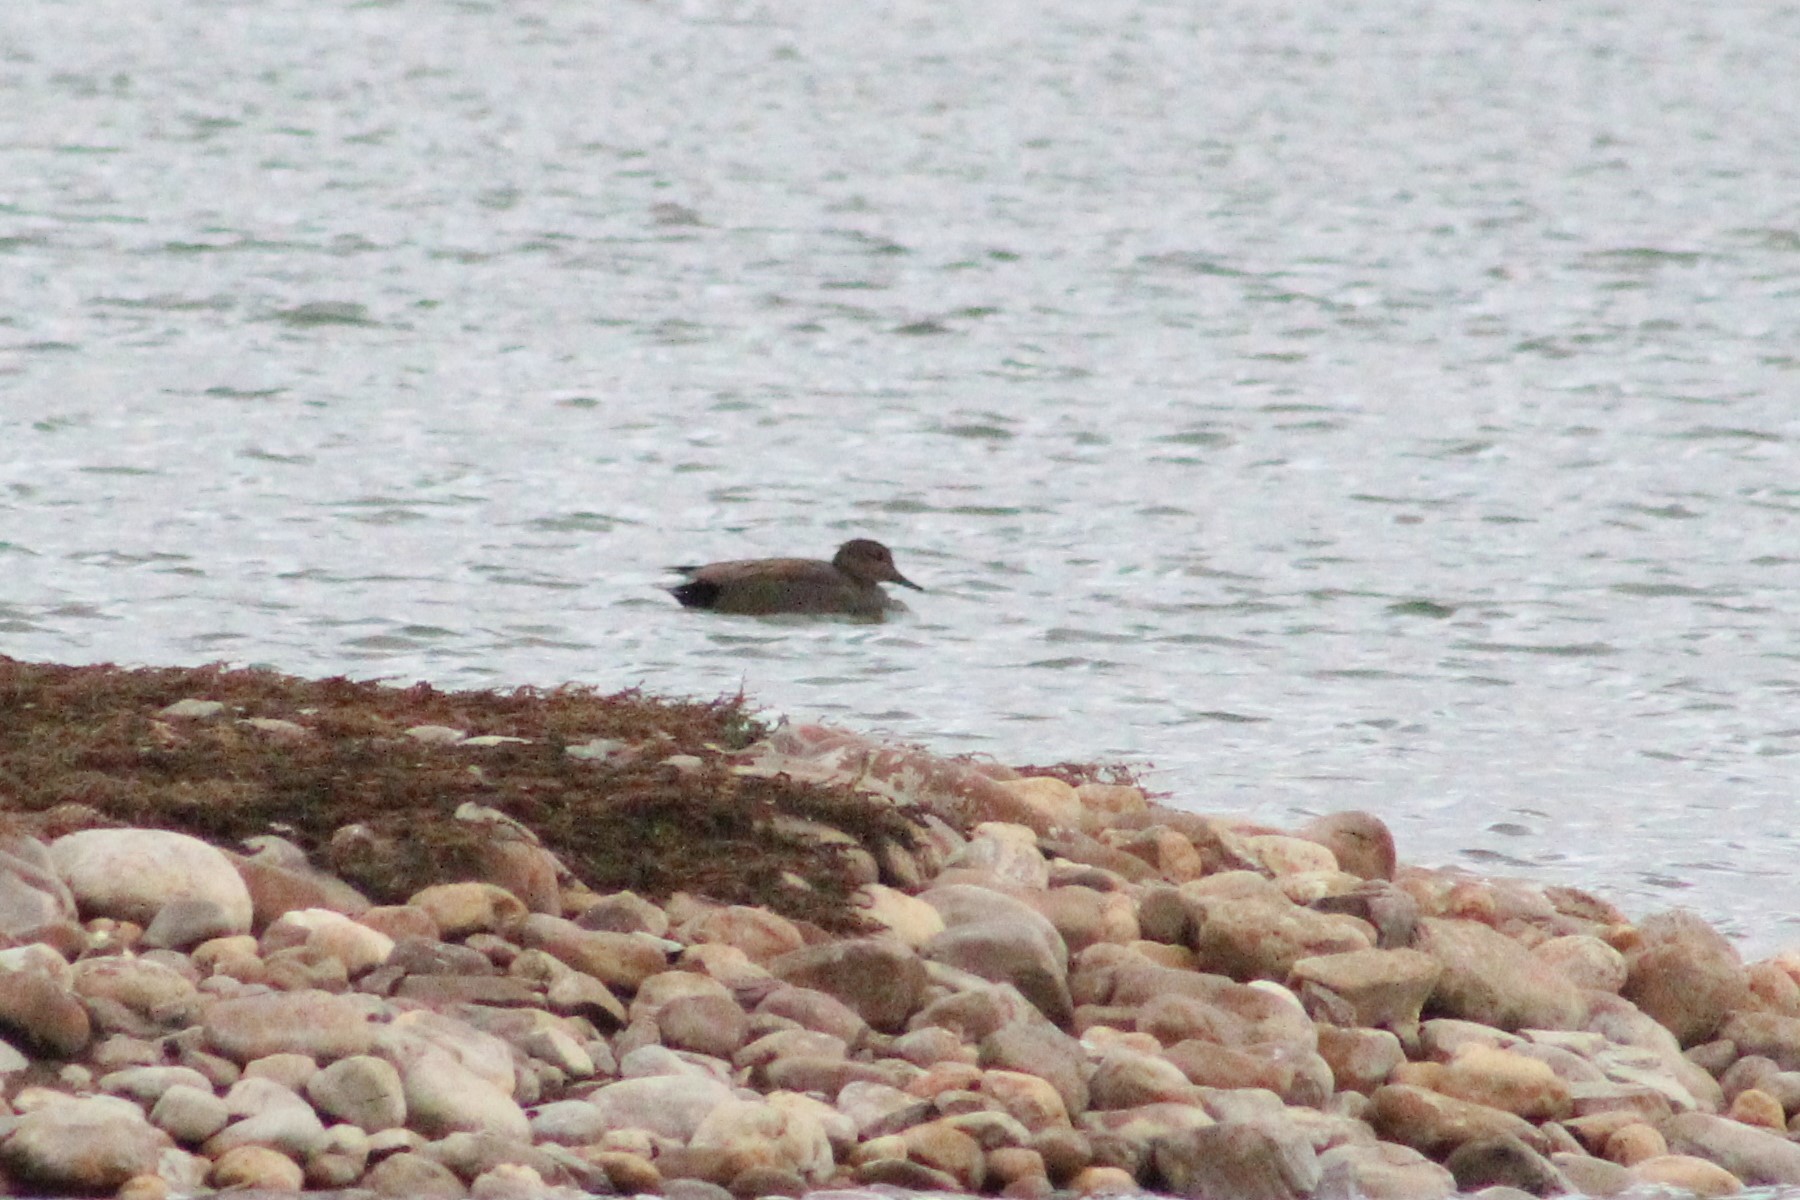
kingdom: Animalia
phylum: Chordata
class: Aves
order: Anseriformes
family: Anatidae
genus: Mareca
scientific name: Mareca strepera
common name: Gadwall
